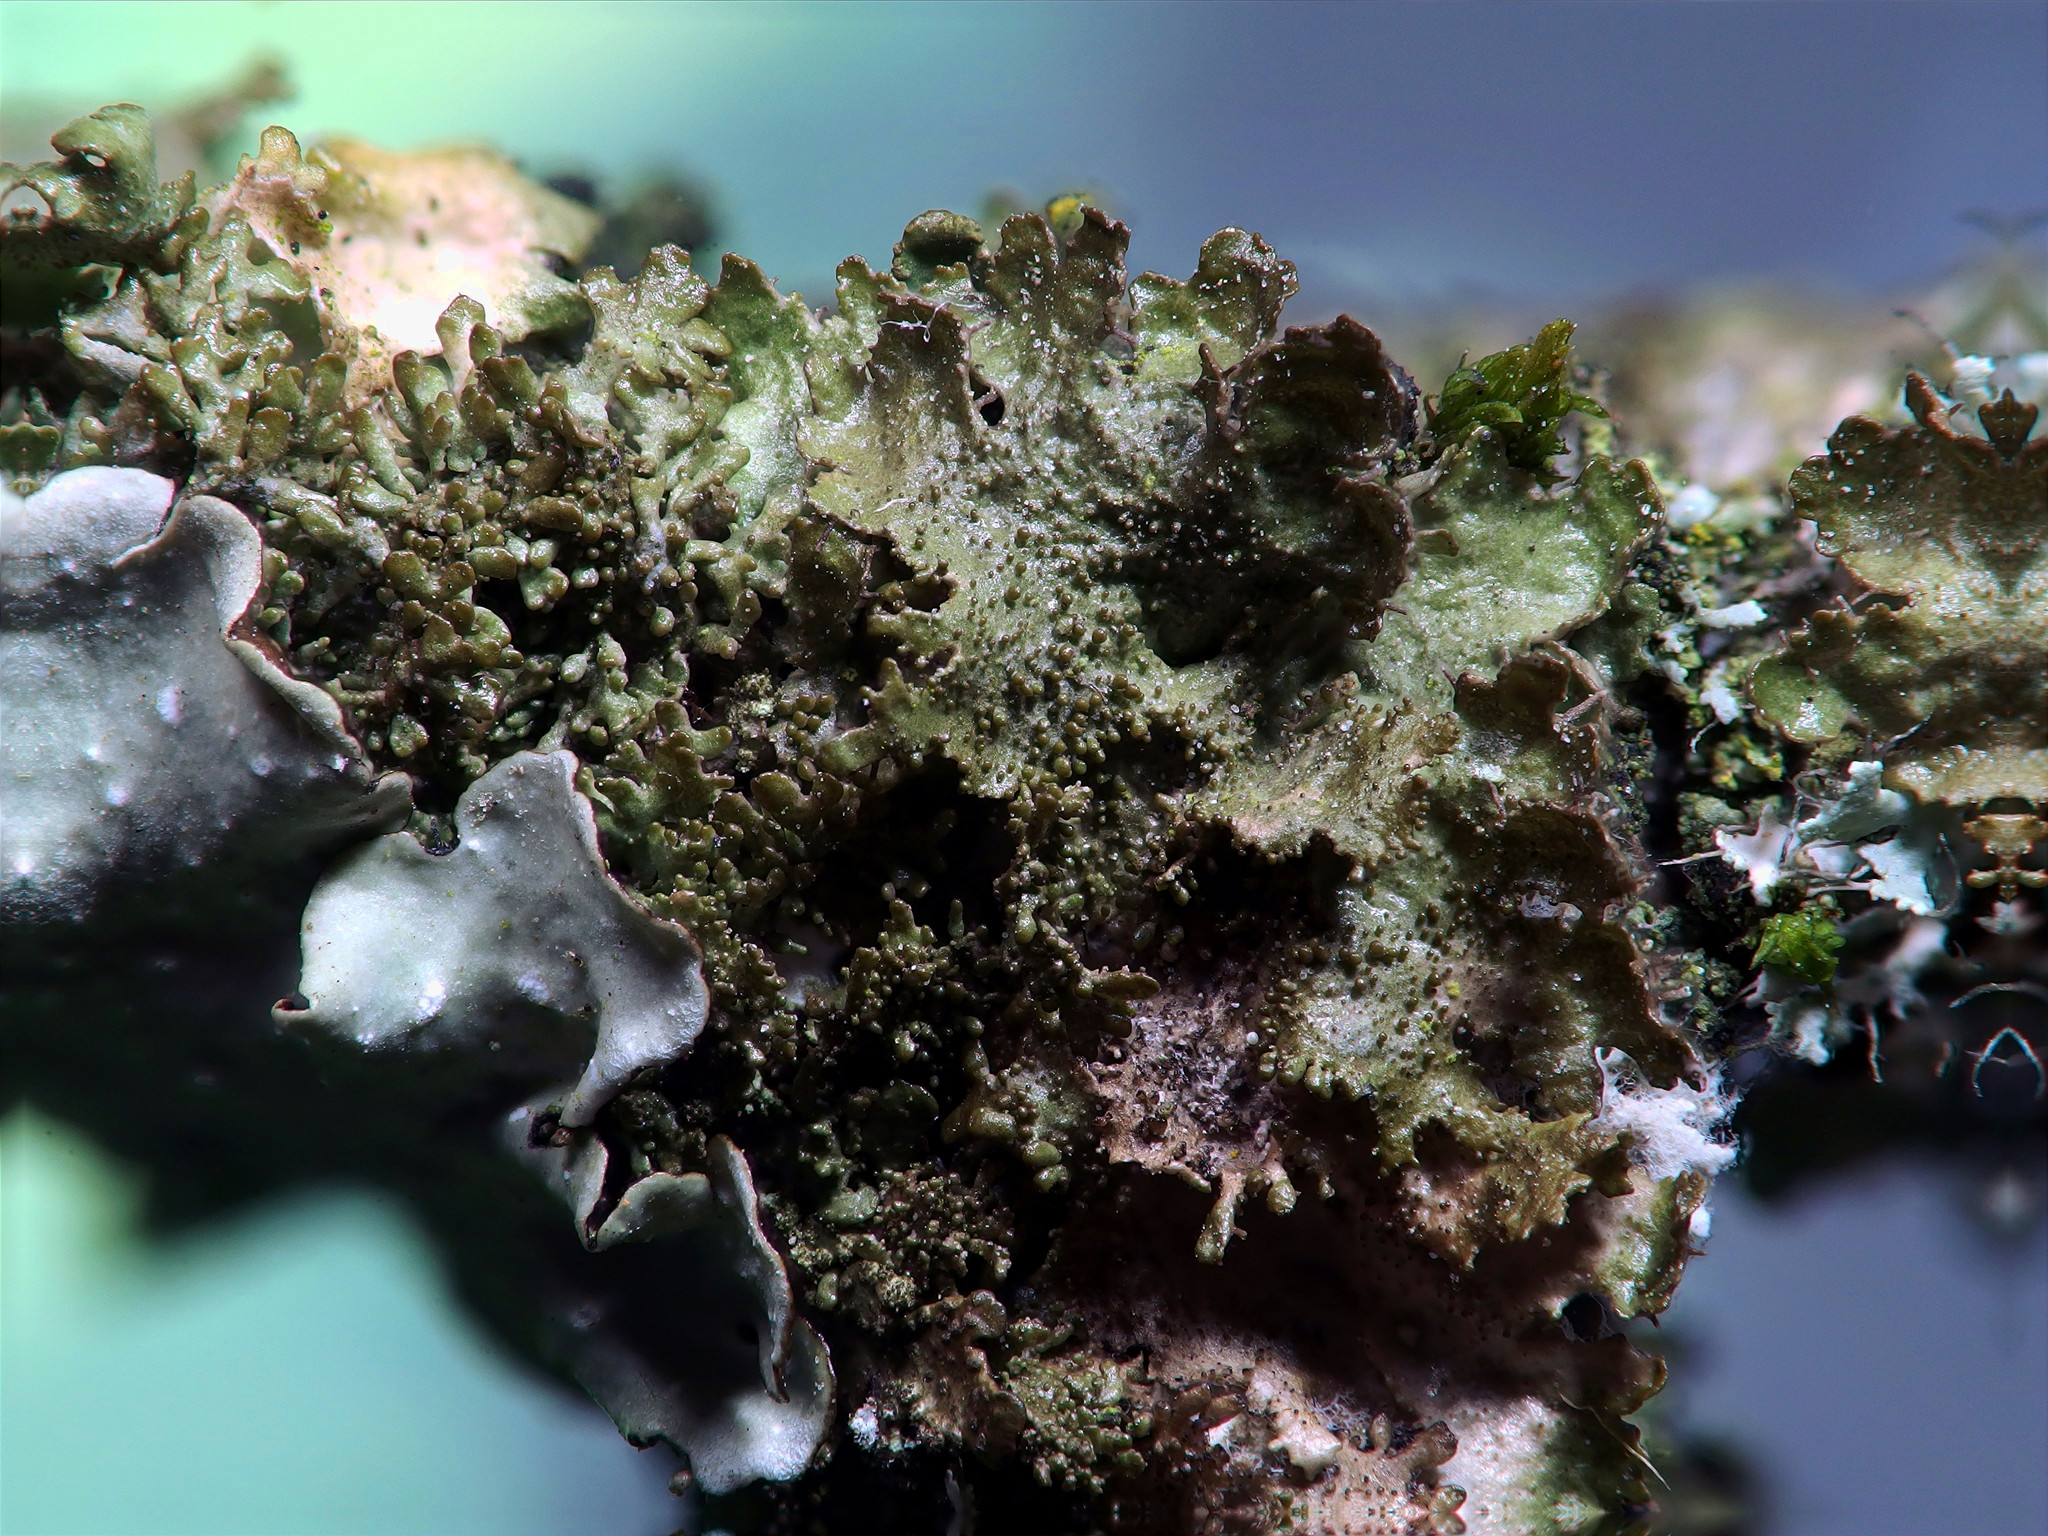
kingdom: Fungi
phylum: Ascomycota
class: Lecanoromycetes
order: Lecanorales
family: Parmeliaceae
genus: Melanohalea
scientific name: Melanohalea exasperatula
